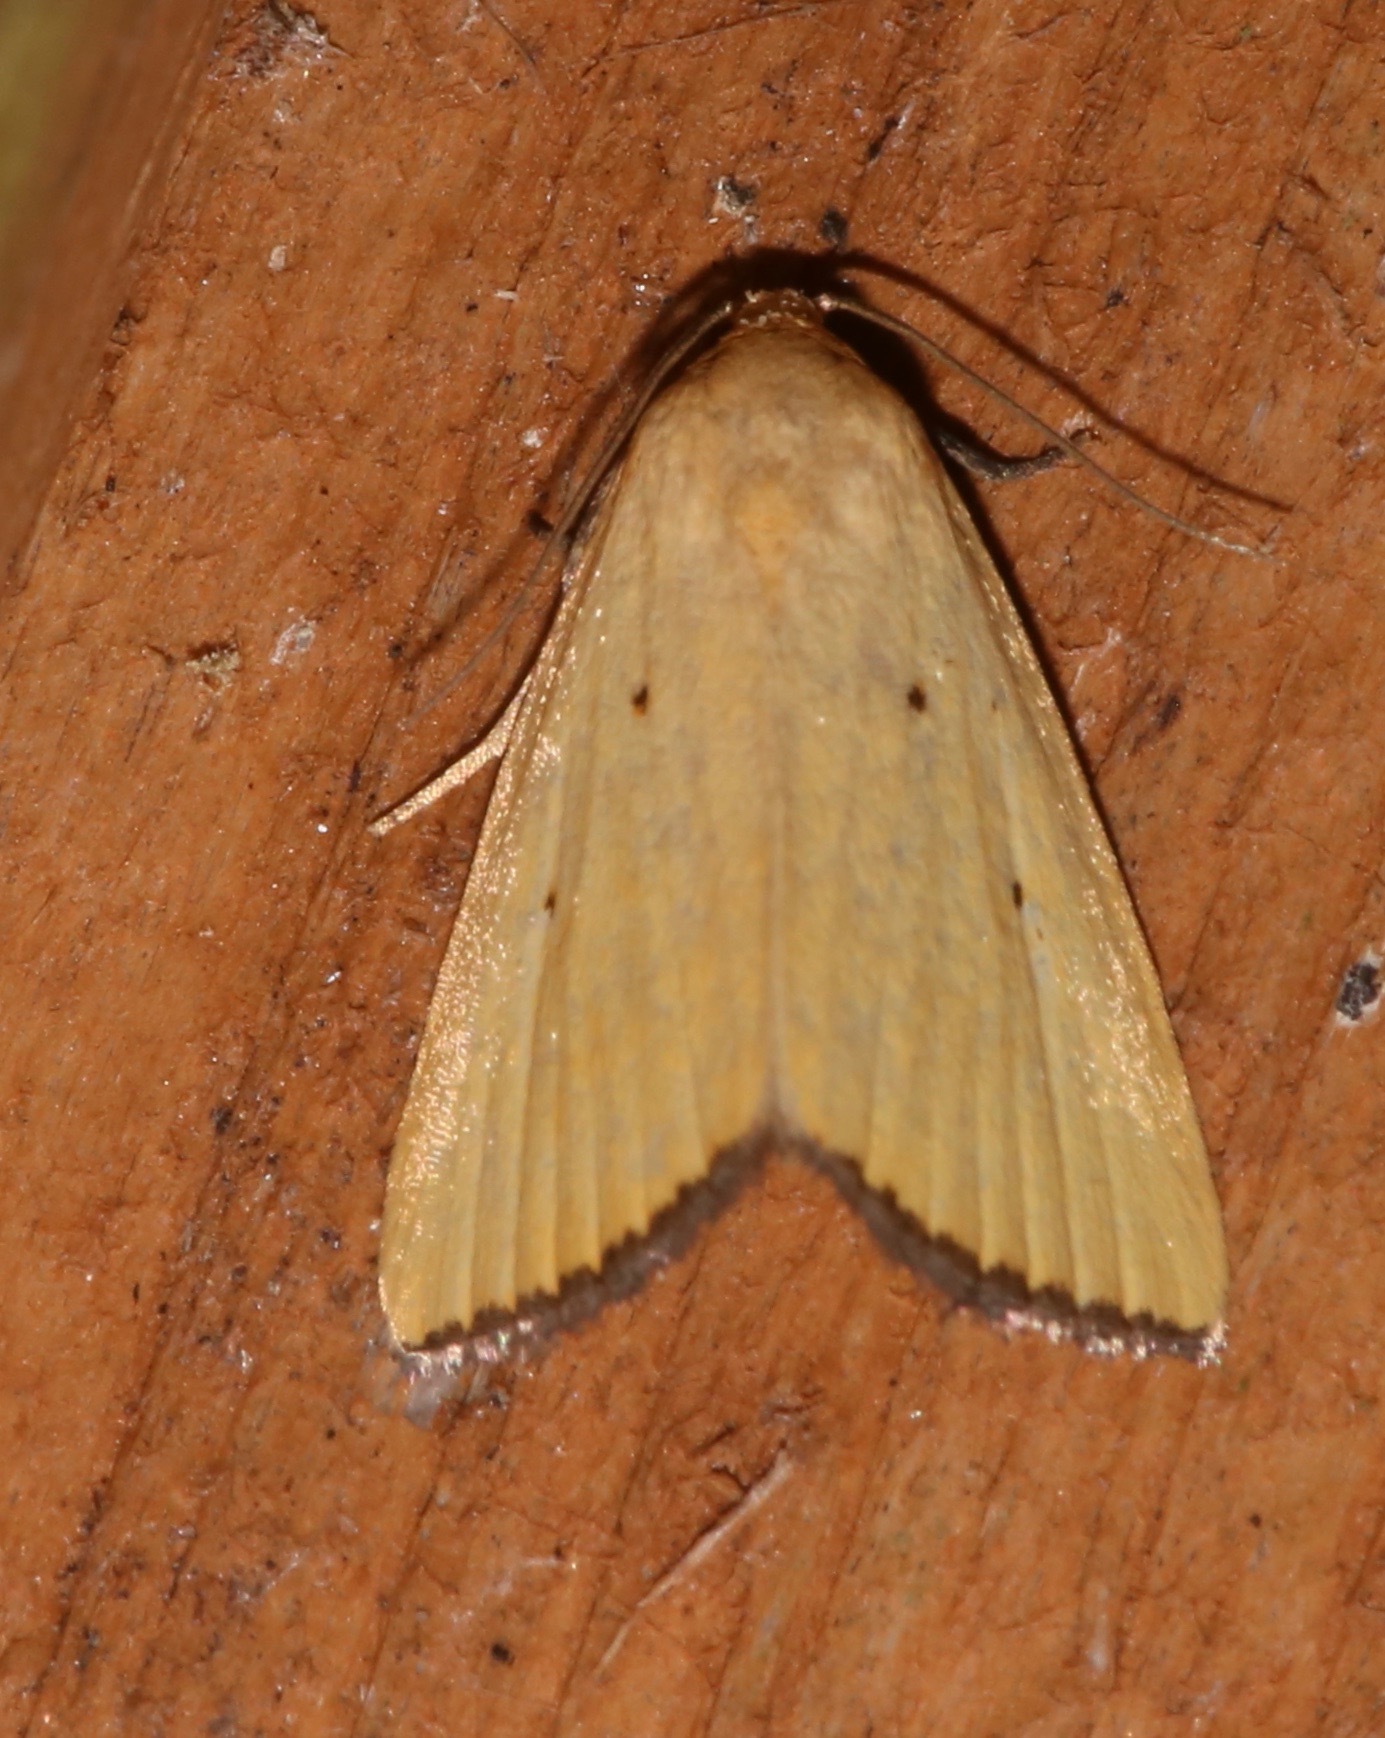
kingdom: Animalia
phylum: Arthropoda
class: Insecta
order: Lepidoptera
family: Noctuidae
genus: Marimatha
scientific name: Marimatha nigrofimbria
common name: Black-bordered lemon moth
